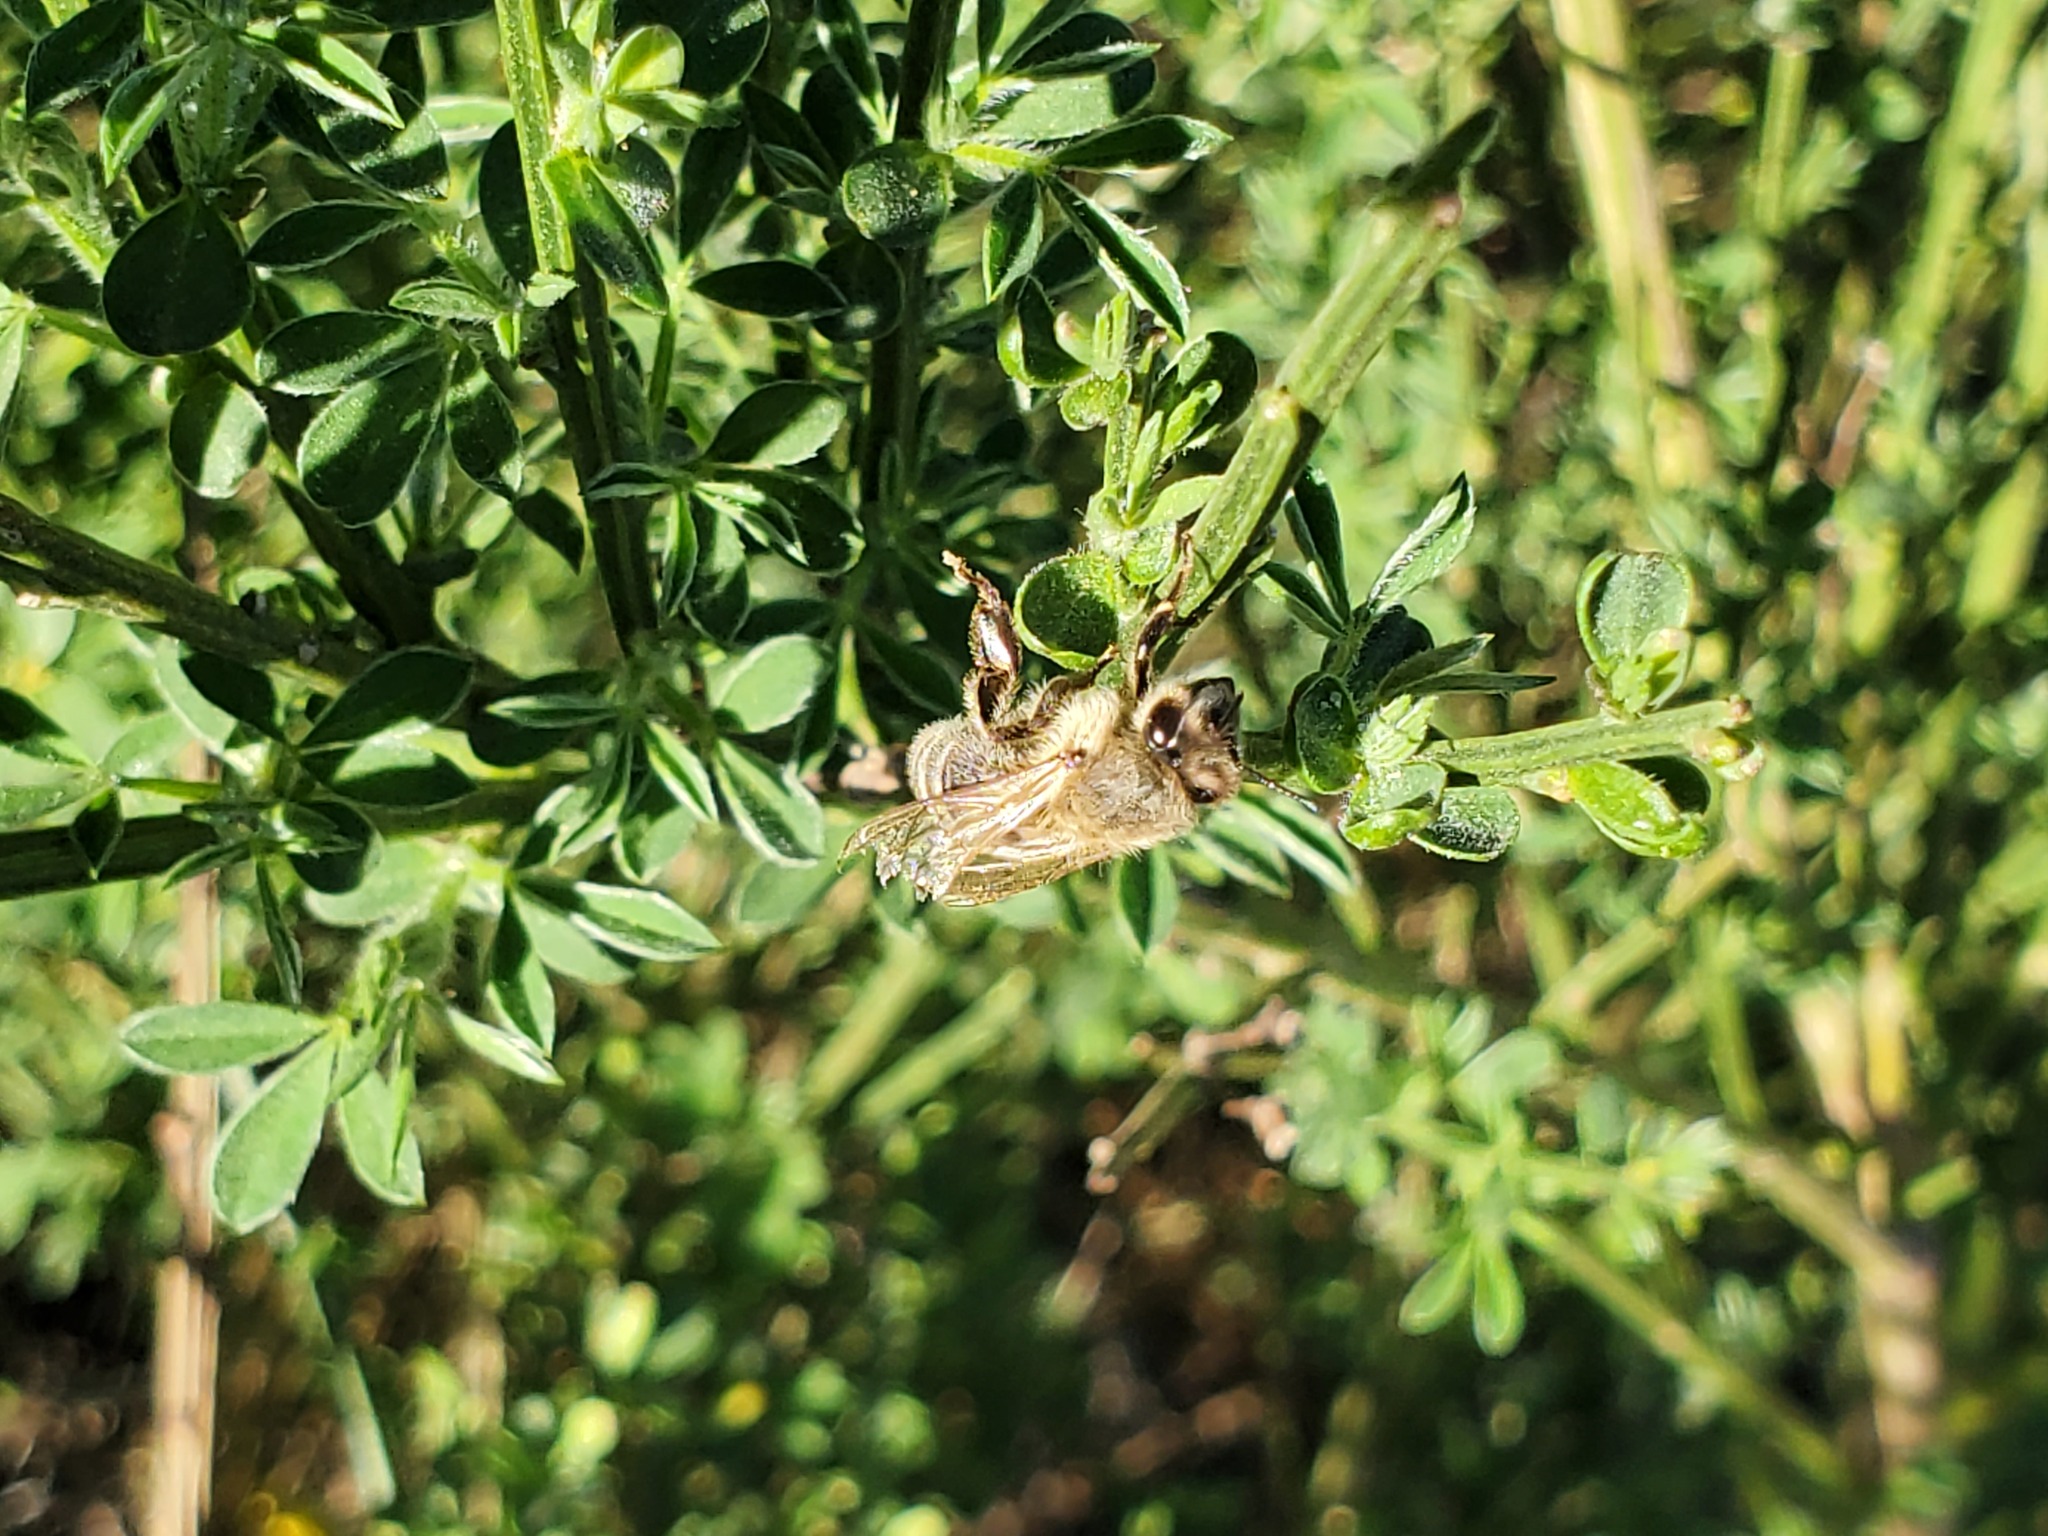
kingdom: Animalia
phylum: Arthropoda
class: Insecta
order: Hymenoptera
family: Apidae
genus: Apis
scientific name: Apis mellifera
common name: Honey bee
